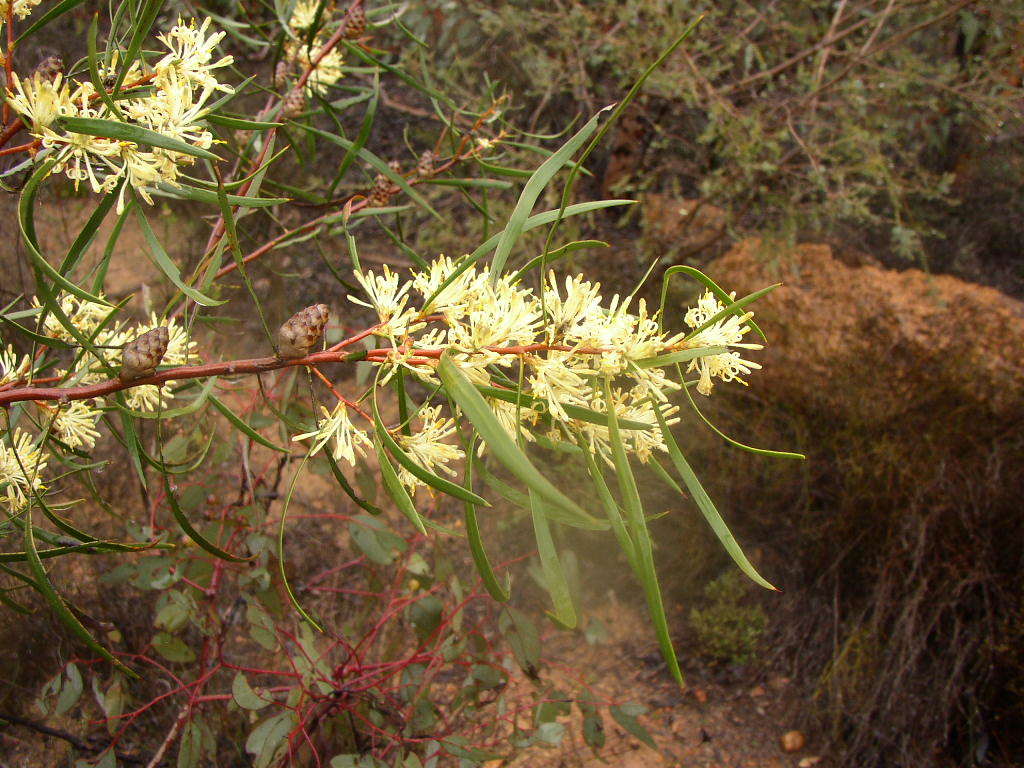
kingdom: Plantae
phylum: Tracheophyta
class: Magnoliopsida
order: Proteales
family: Proteaceae
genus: Petrophile
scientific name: Petrophile heterophylla
